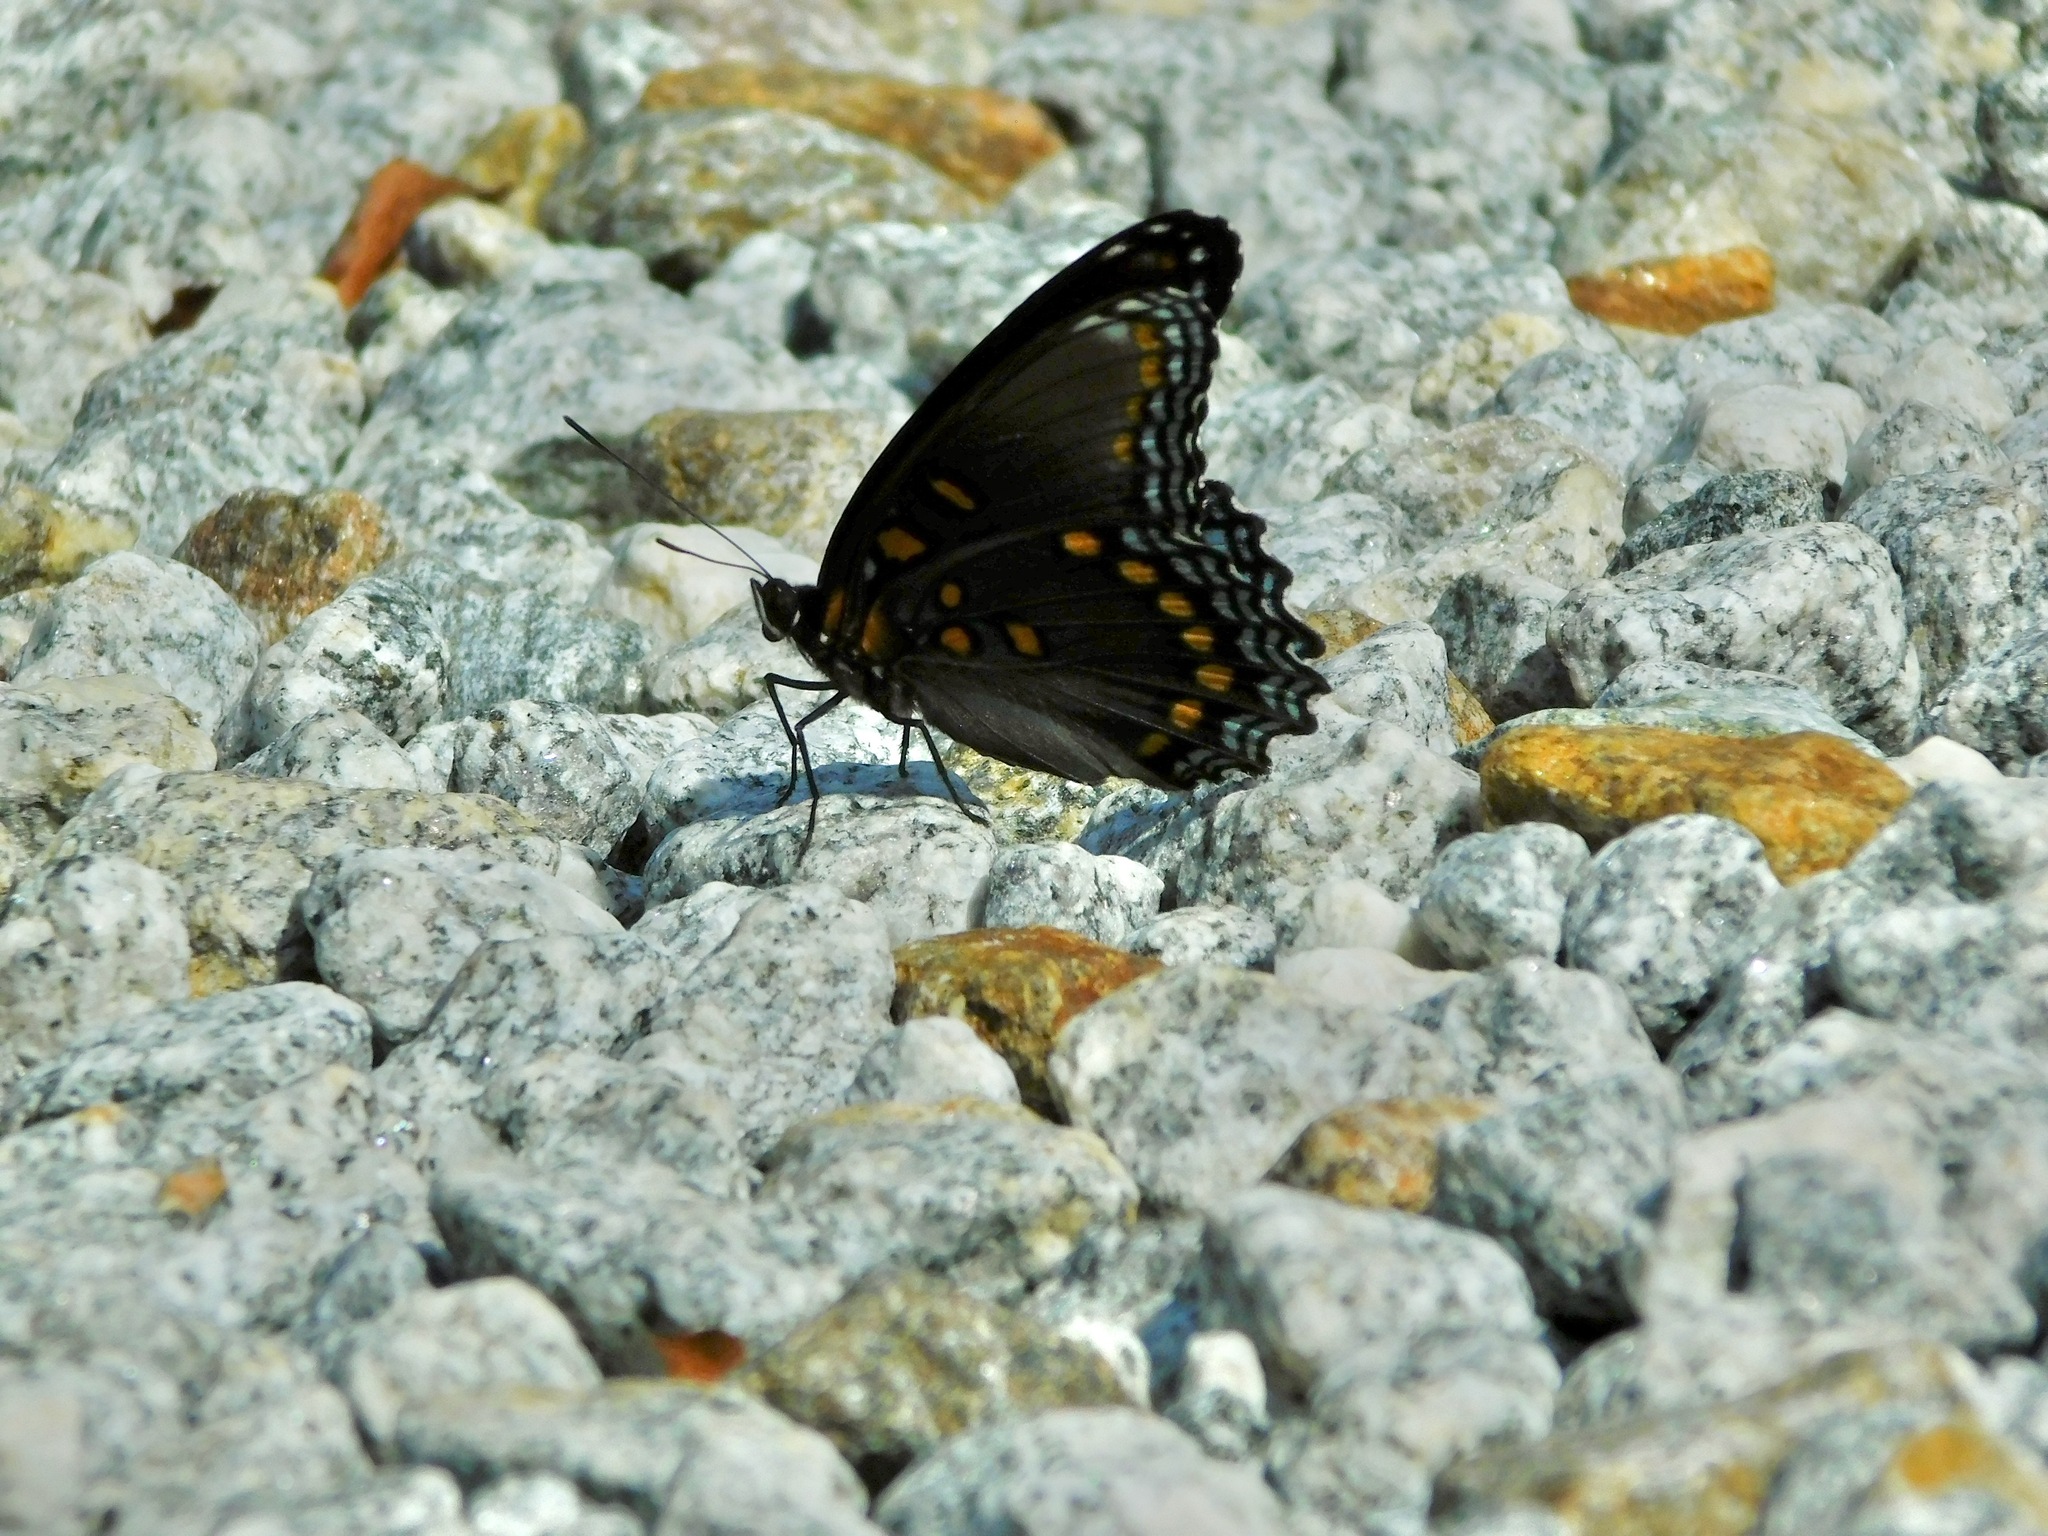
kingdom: Animalia
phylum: Arthropoda
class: Insecta
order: Lepidoptera
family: Nymphalidae
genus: Limenitis
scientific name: Limenitis astyanax
